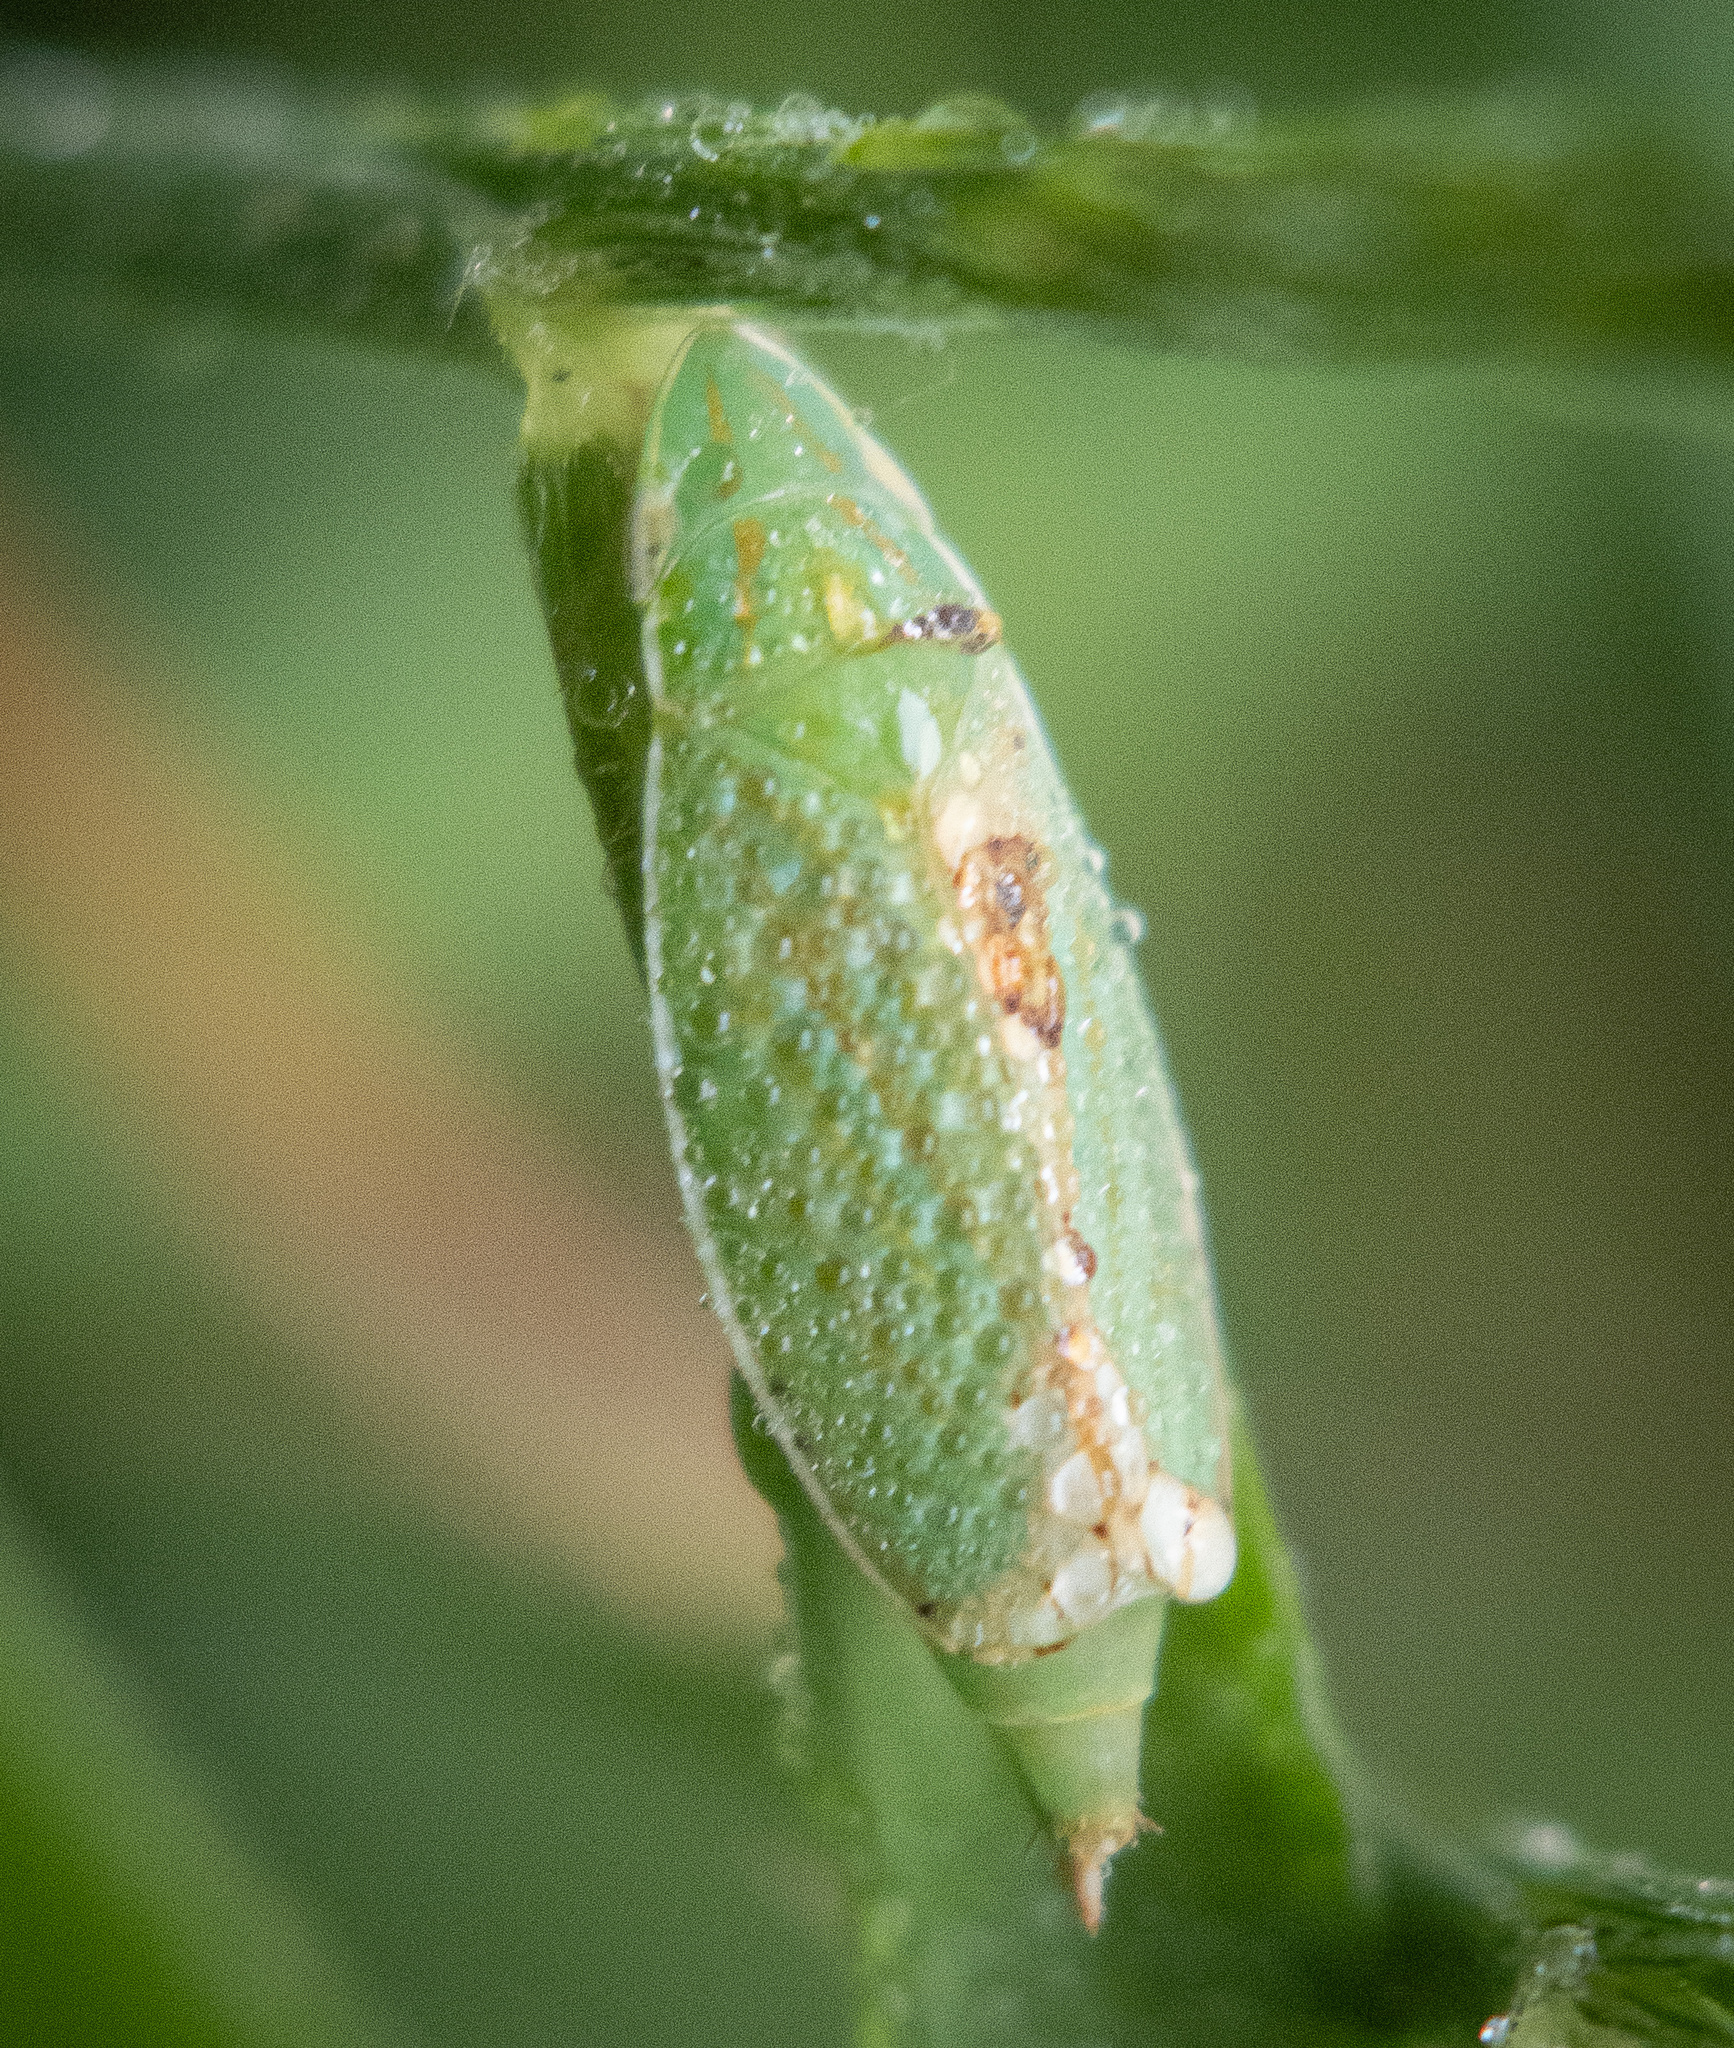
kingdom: Animalia
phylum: Arthropoda
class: Insecta
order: Hemiptera
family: Cicadellidae
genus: Spangbergiella
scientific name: Spangbergiella quadripunctata
